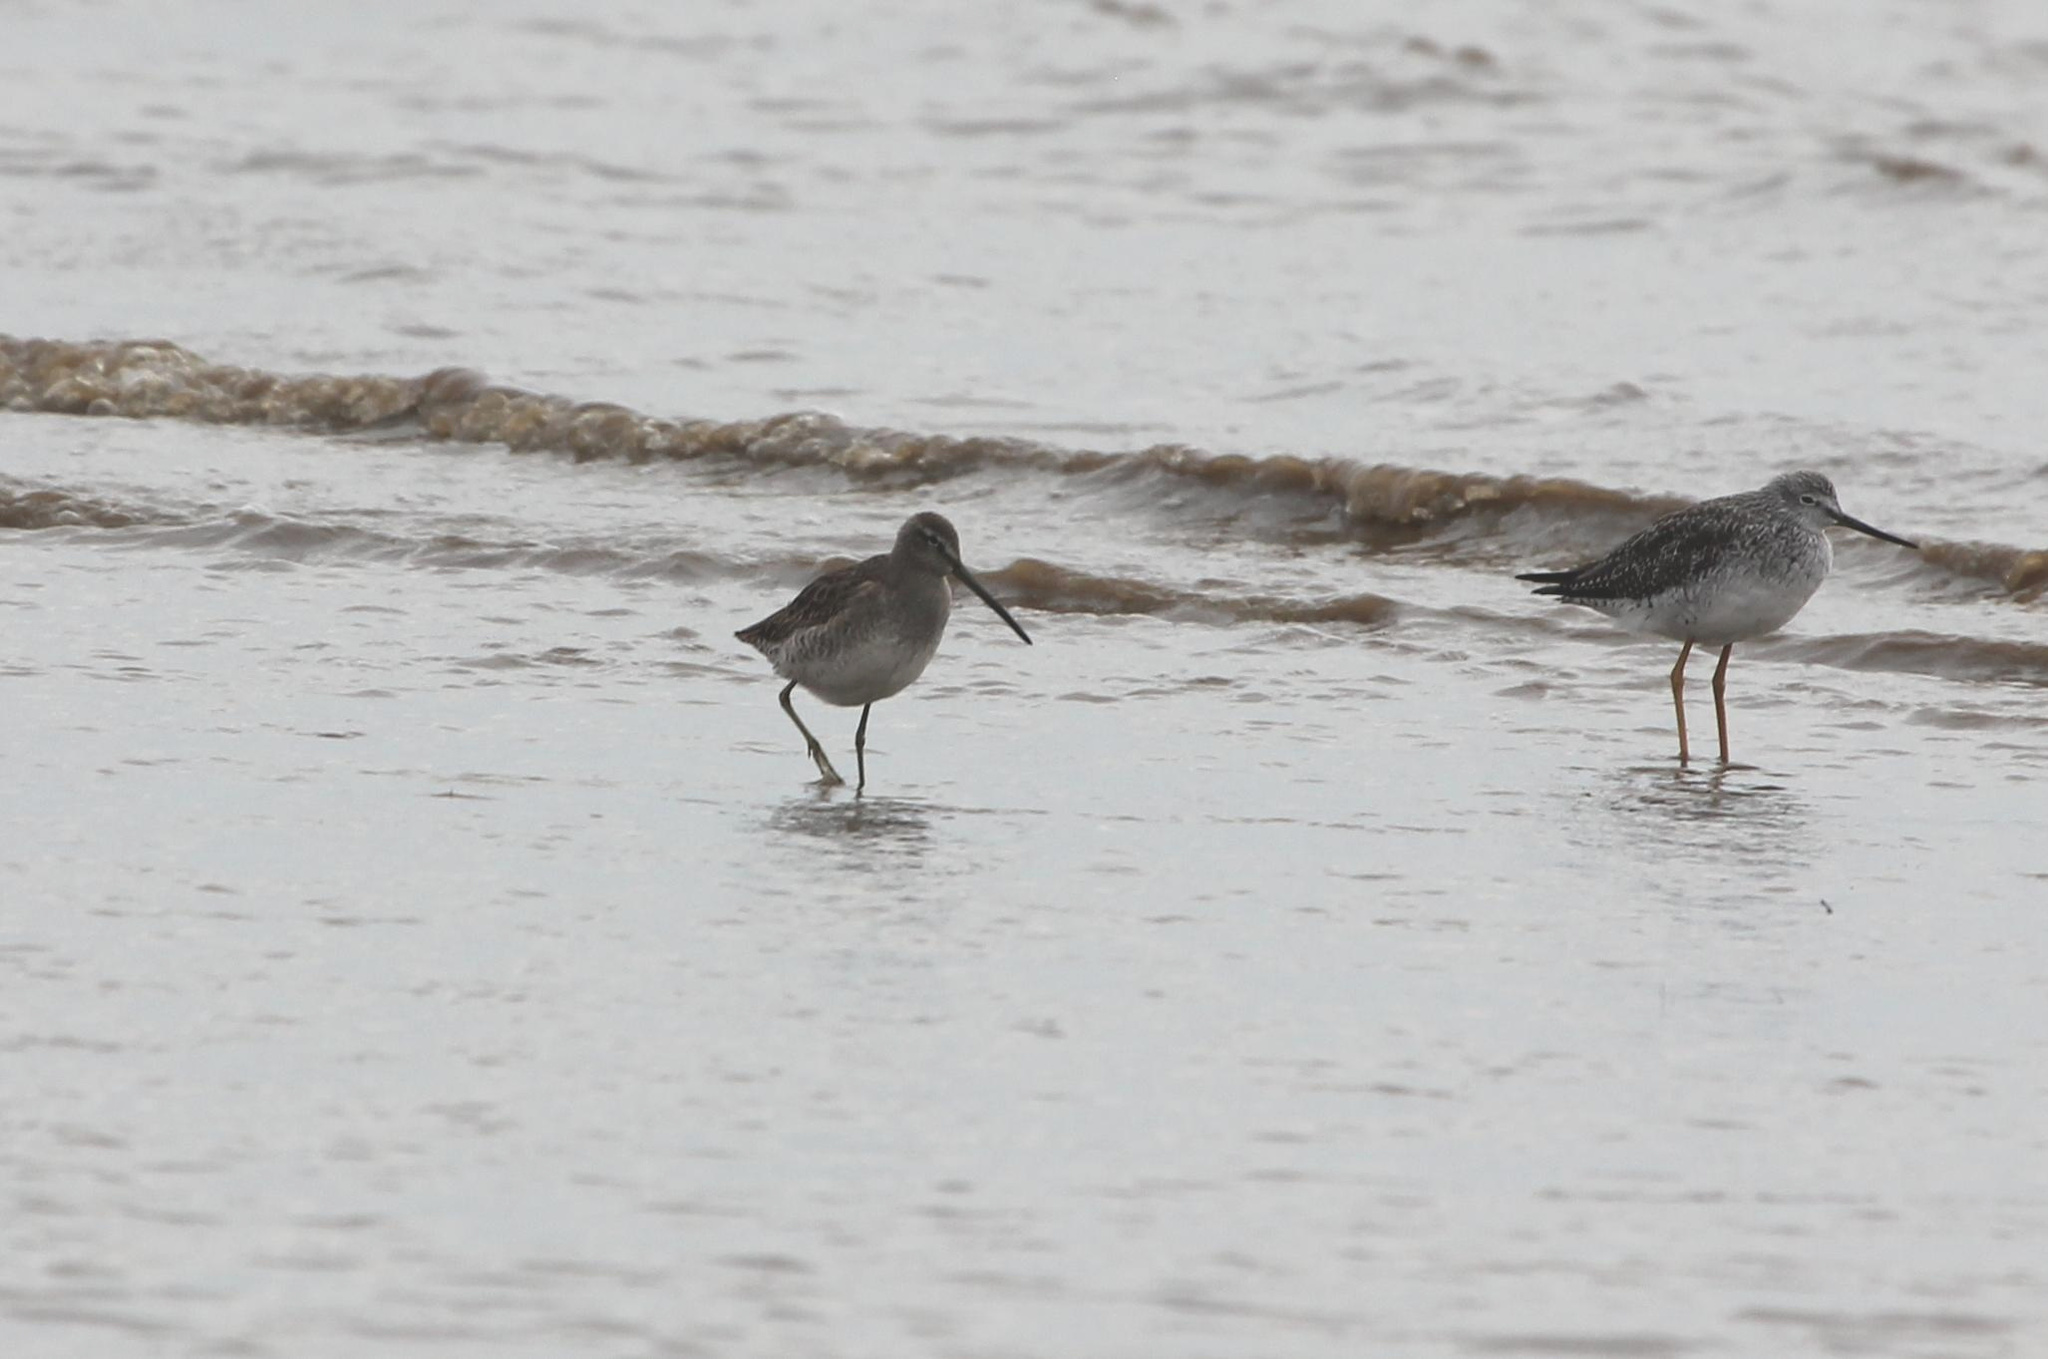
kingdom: Animalia
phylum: Chordata
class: Aves
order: Charadriiformes
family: Scolopacidae
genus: Limnodromus
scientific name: Limnodromus scolopaceus
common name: Long-billed dowitcher
